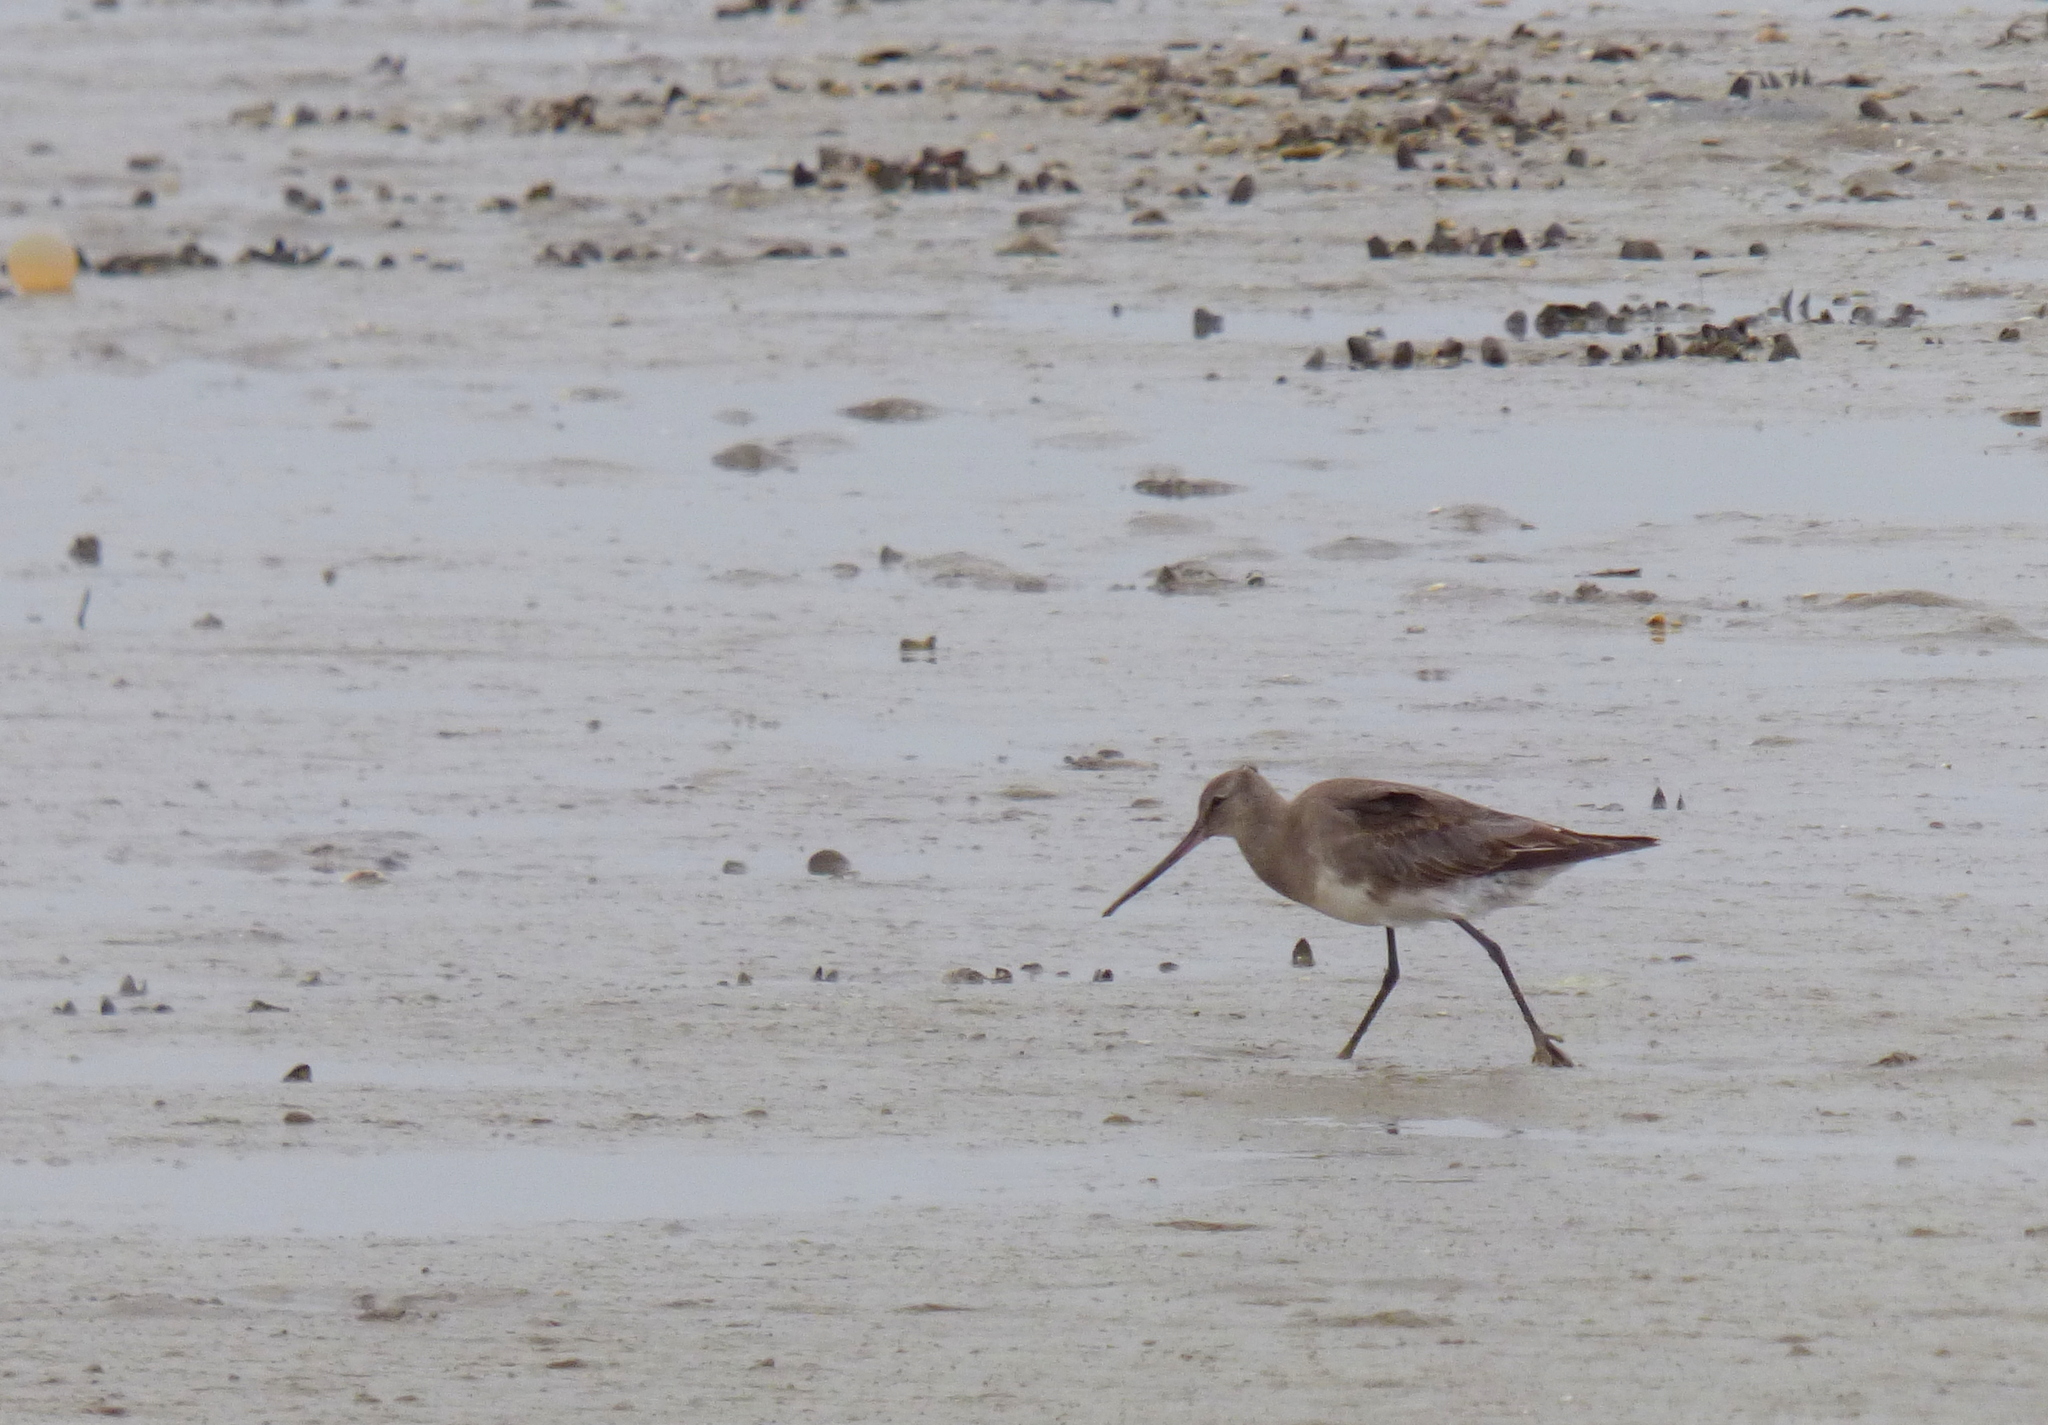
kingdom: Animalia
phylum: Chordata
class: Aves
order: Charadriiformes
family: Scolopacidae
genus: Limosa
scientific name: Limosa haemastica
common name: Hudsonian godwit
